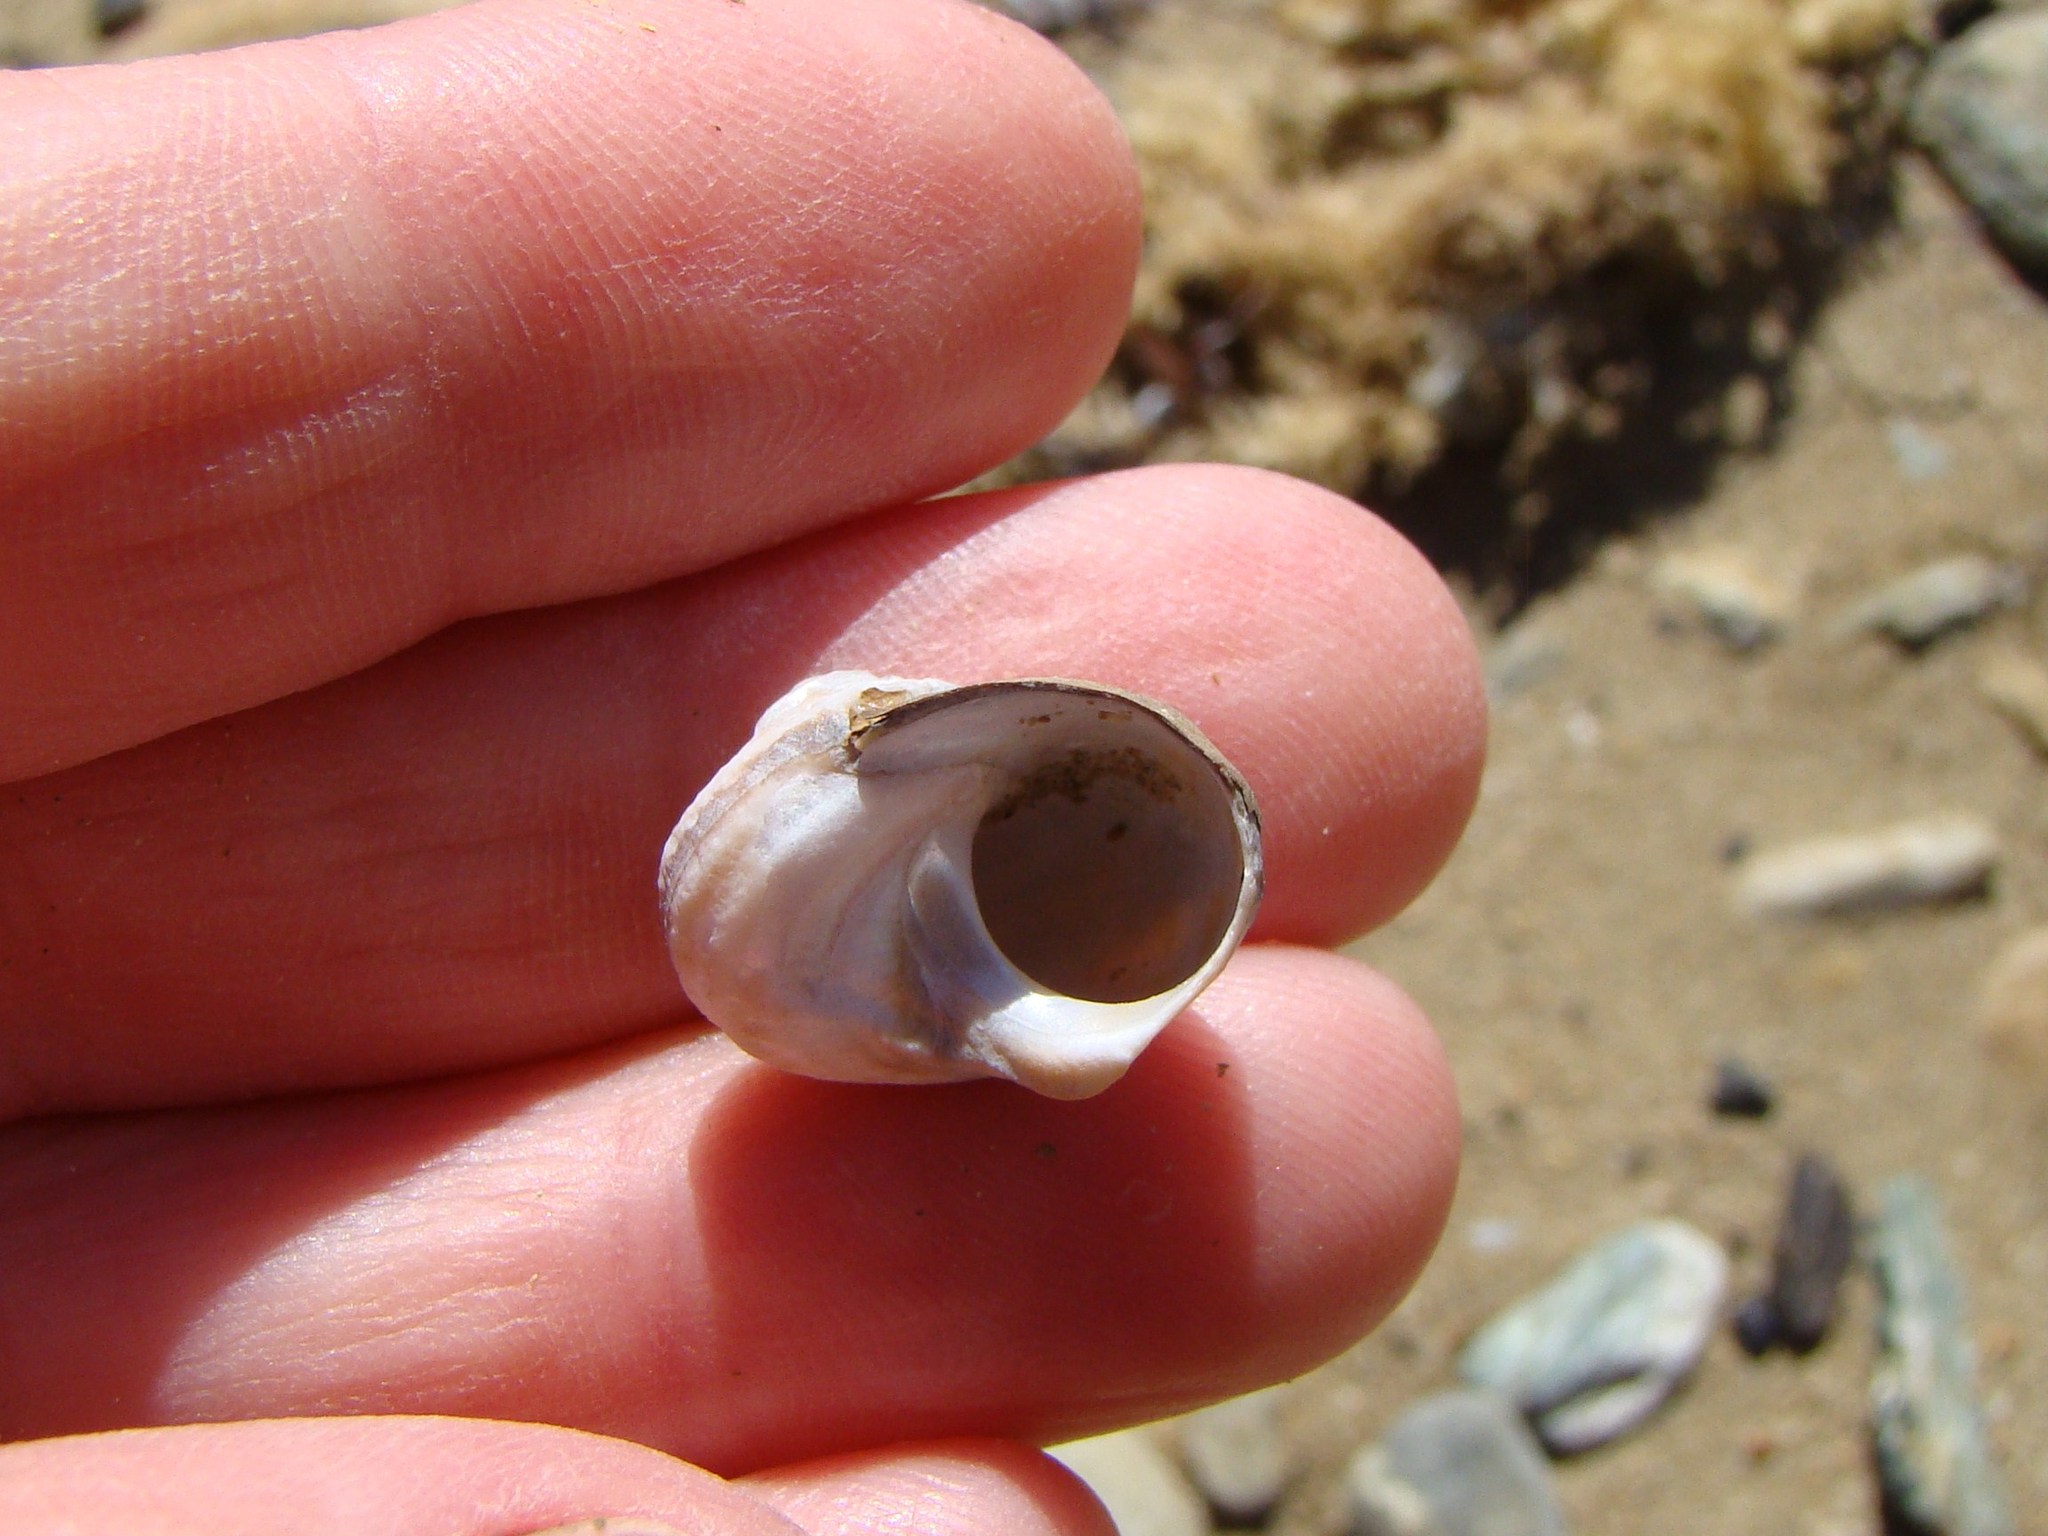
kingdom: Animalia
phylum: Mollusca
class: Gastropoda
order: Trochida
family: Turbinidae
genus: Lunella
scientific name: Lunella smaragda
